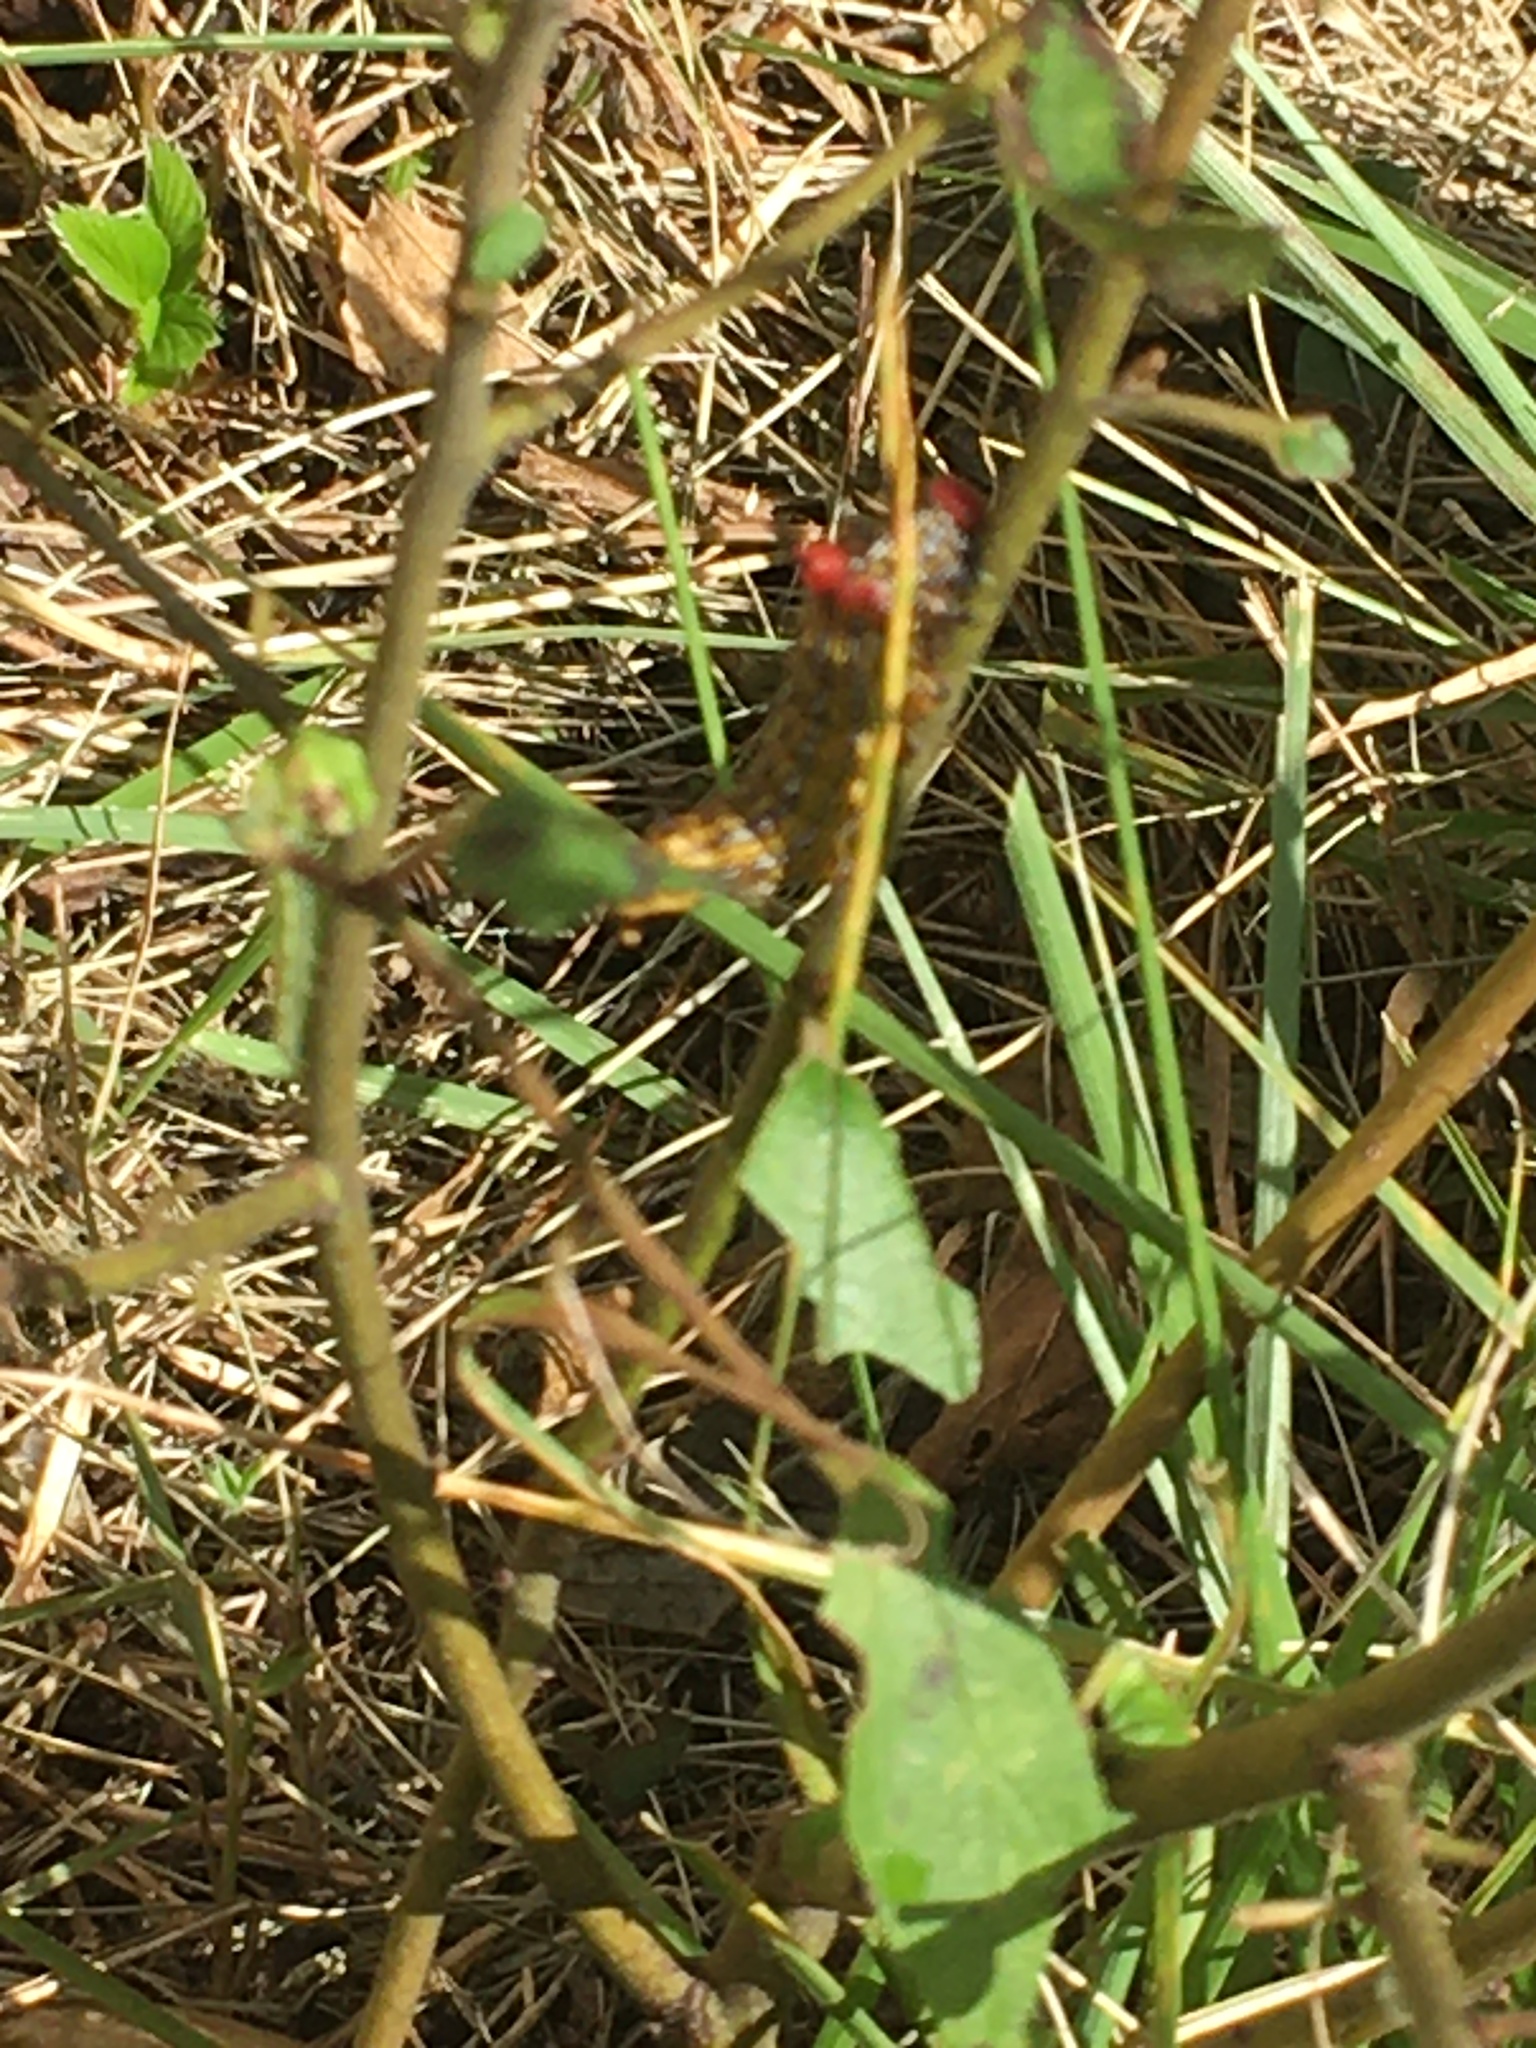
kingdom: Animalia
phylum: Arthropoda
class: Insecta
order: Lepidoptera
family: Notodontidae
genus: Schizura
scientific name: Schizura
